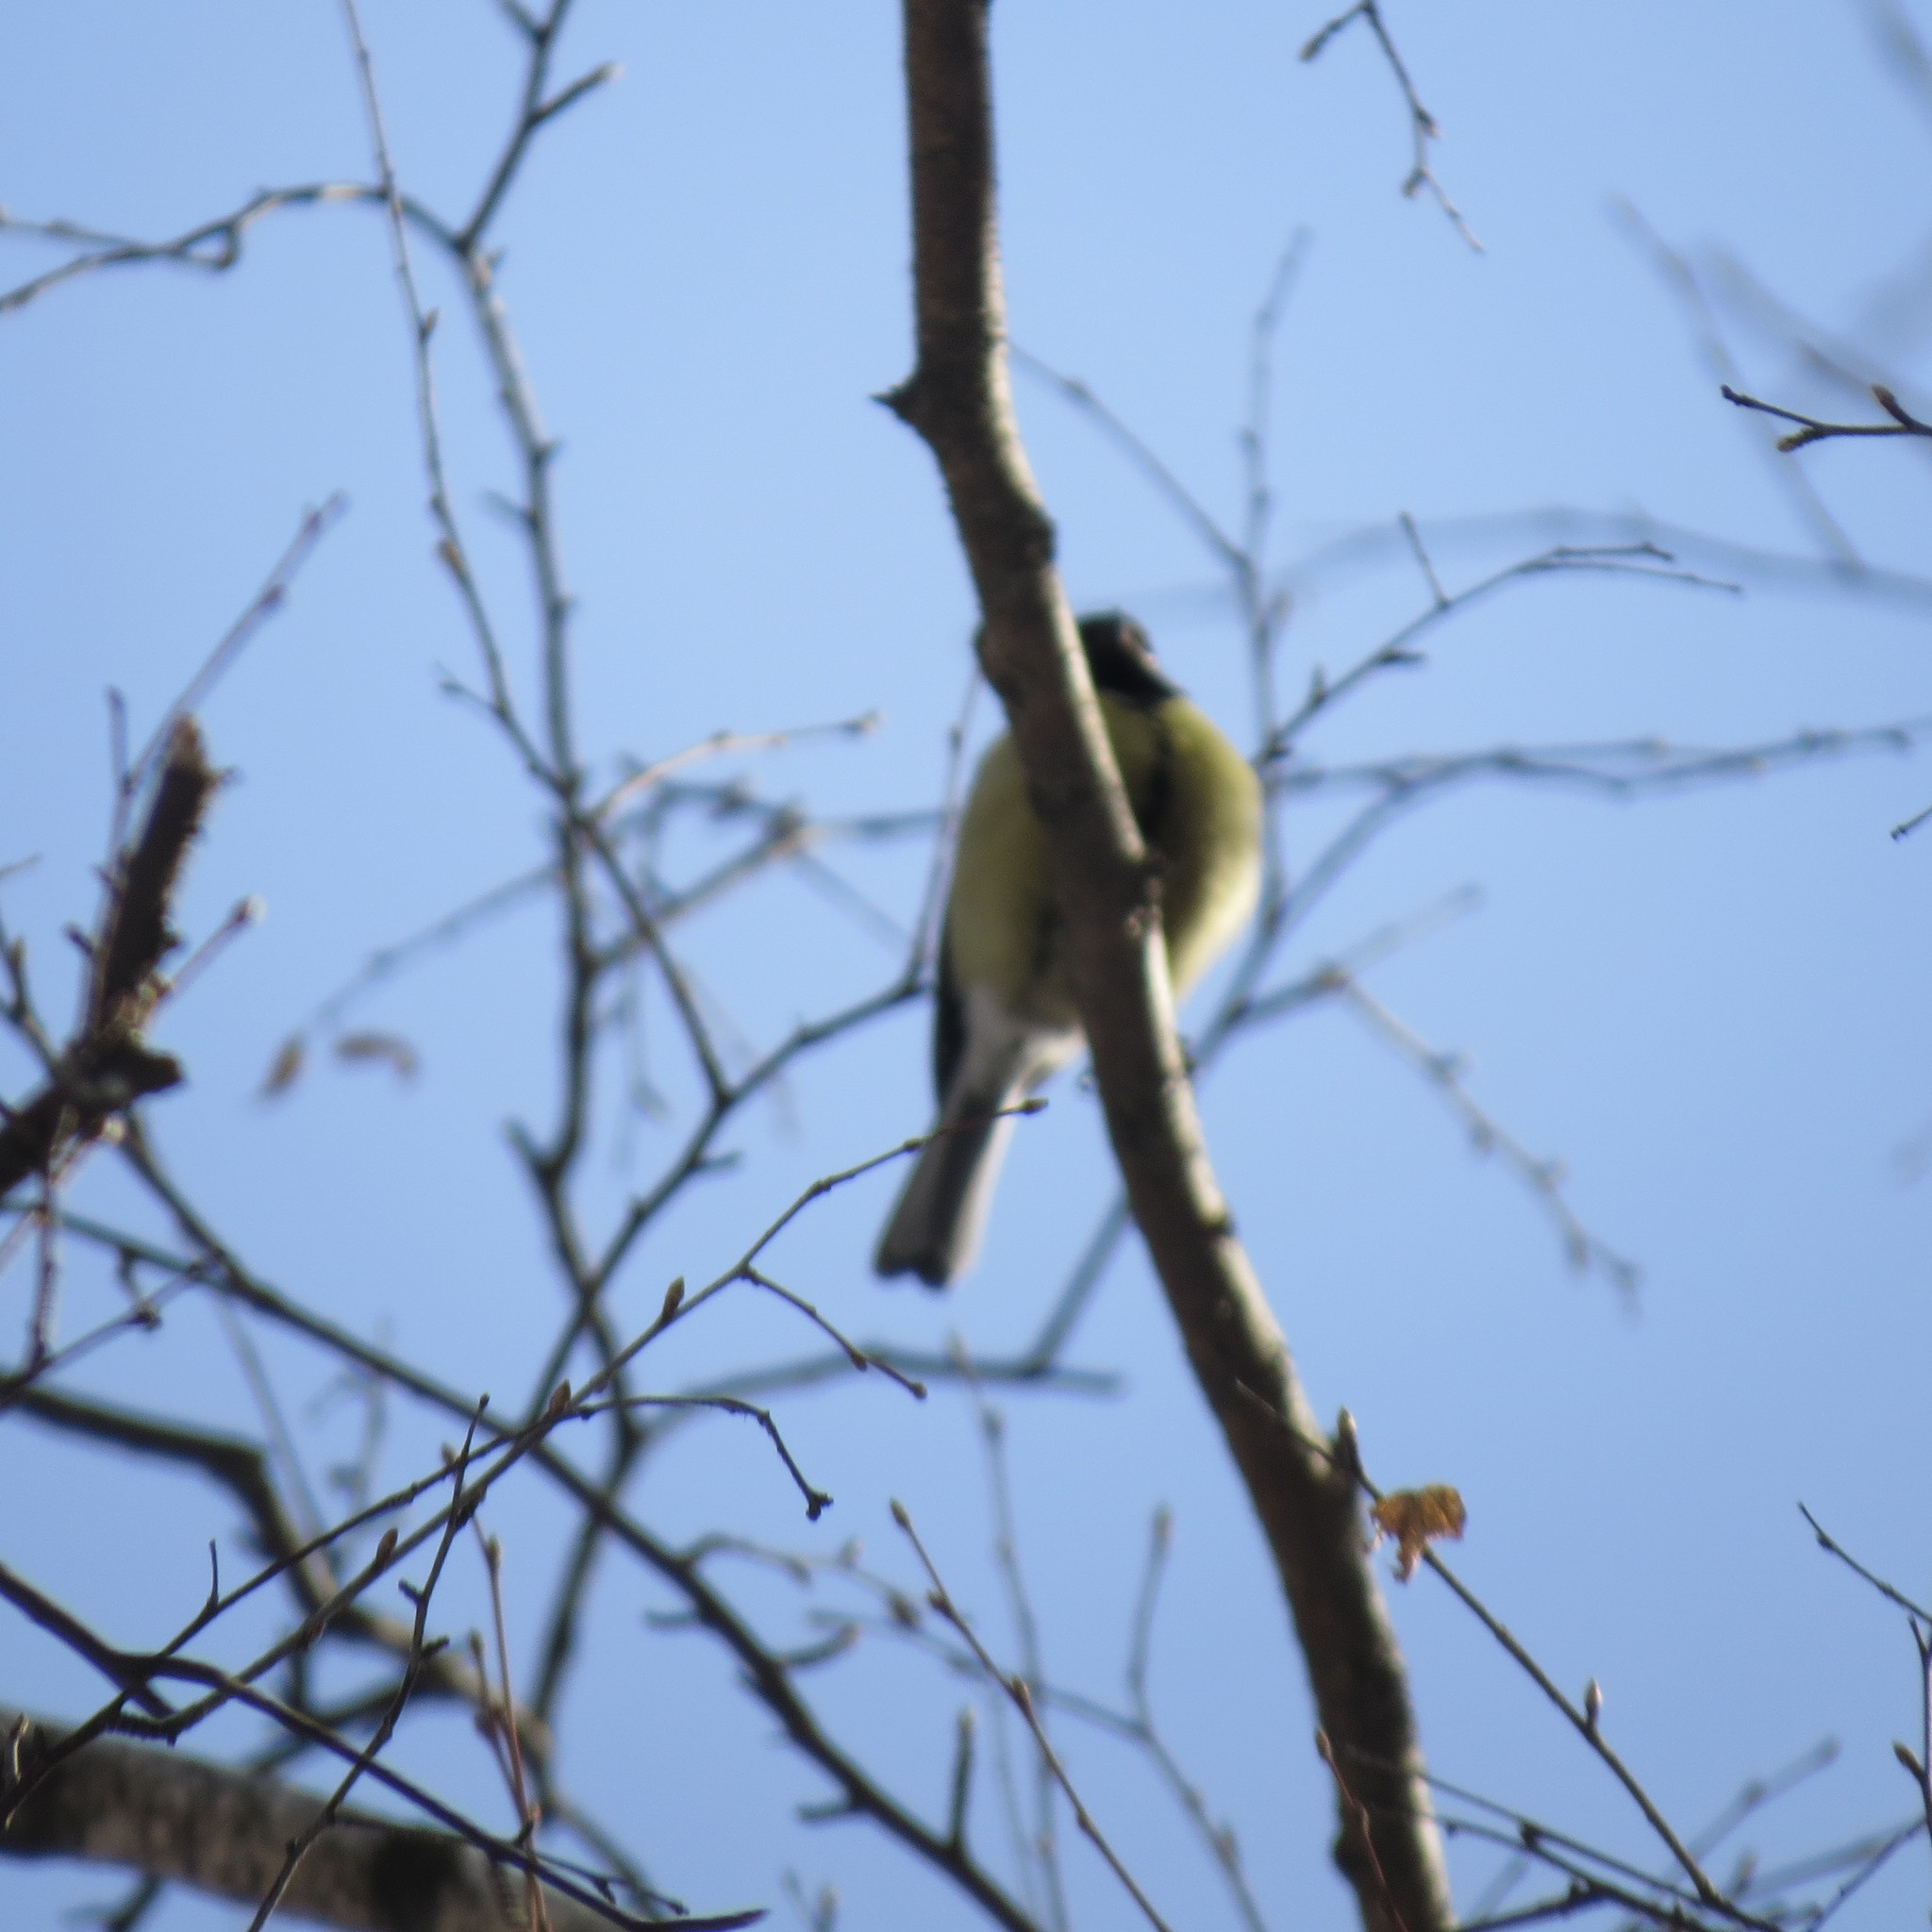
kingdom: Animalia
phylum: Chordata
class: Aves
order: Passeriformes
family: Paridae
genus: Parus
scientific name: Parus major
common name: Great tit
